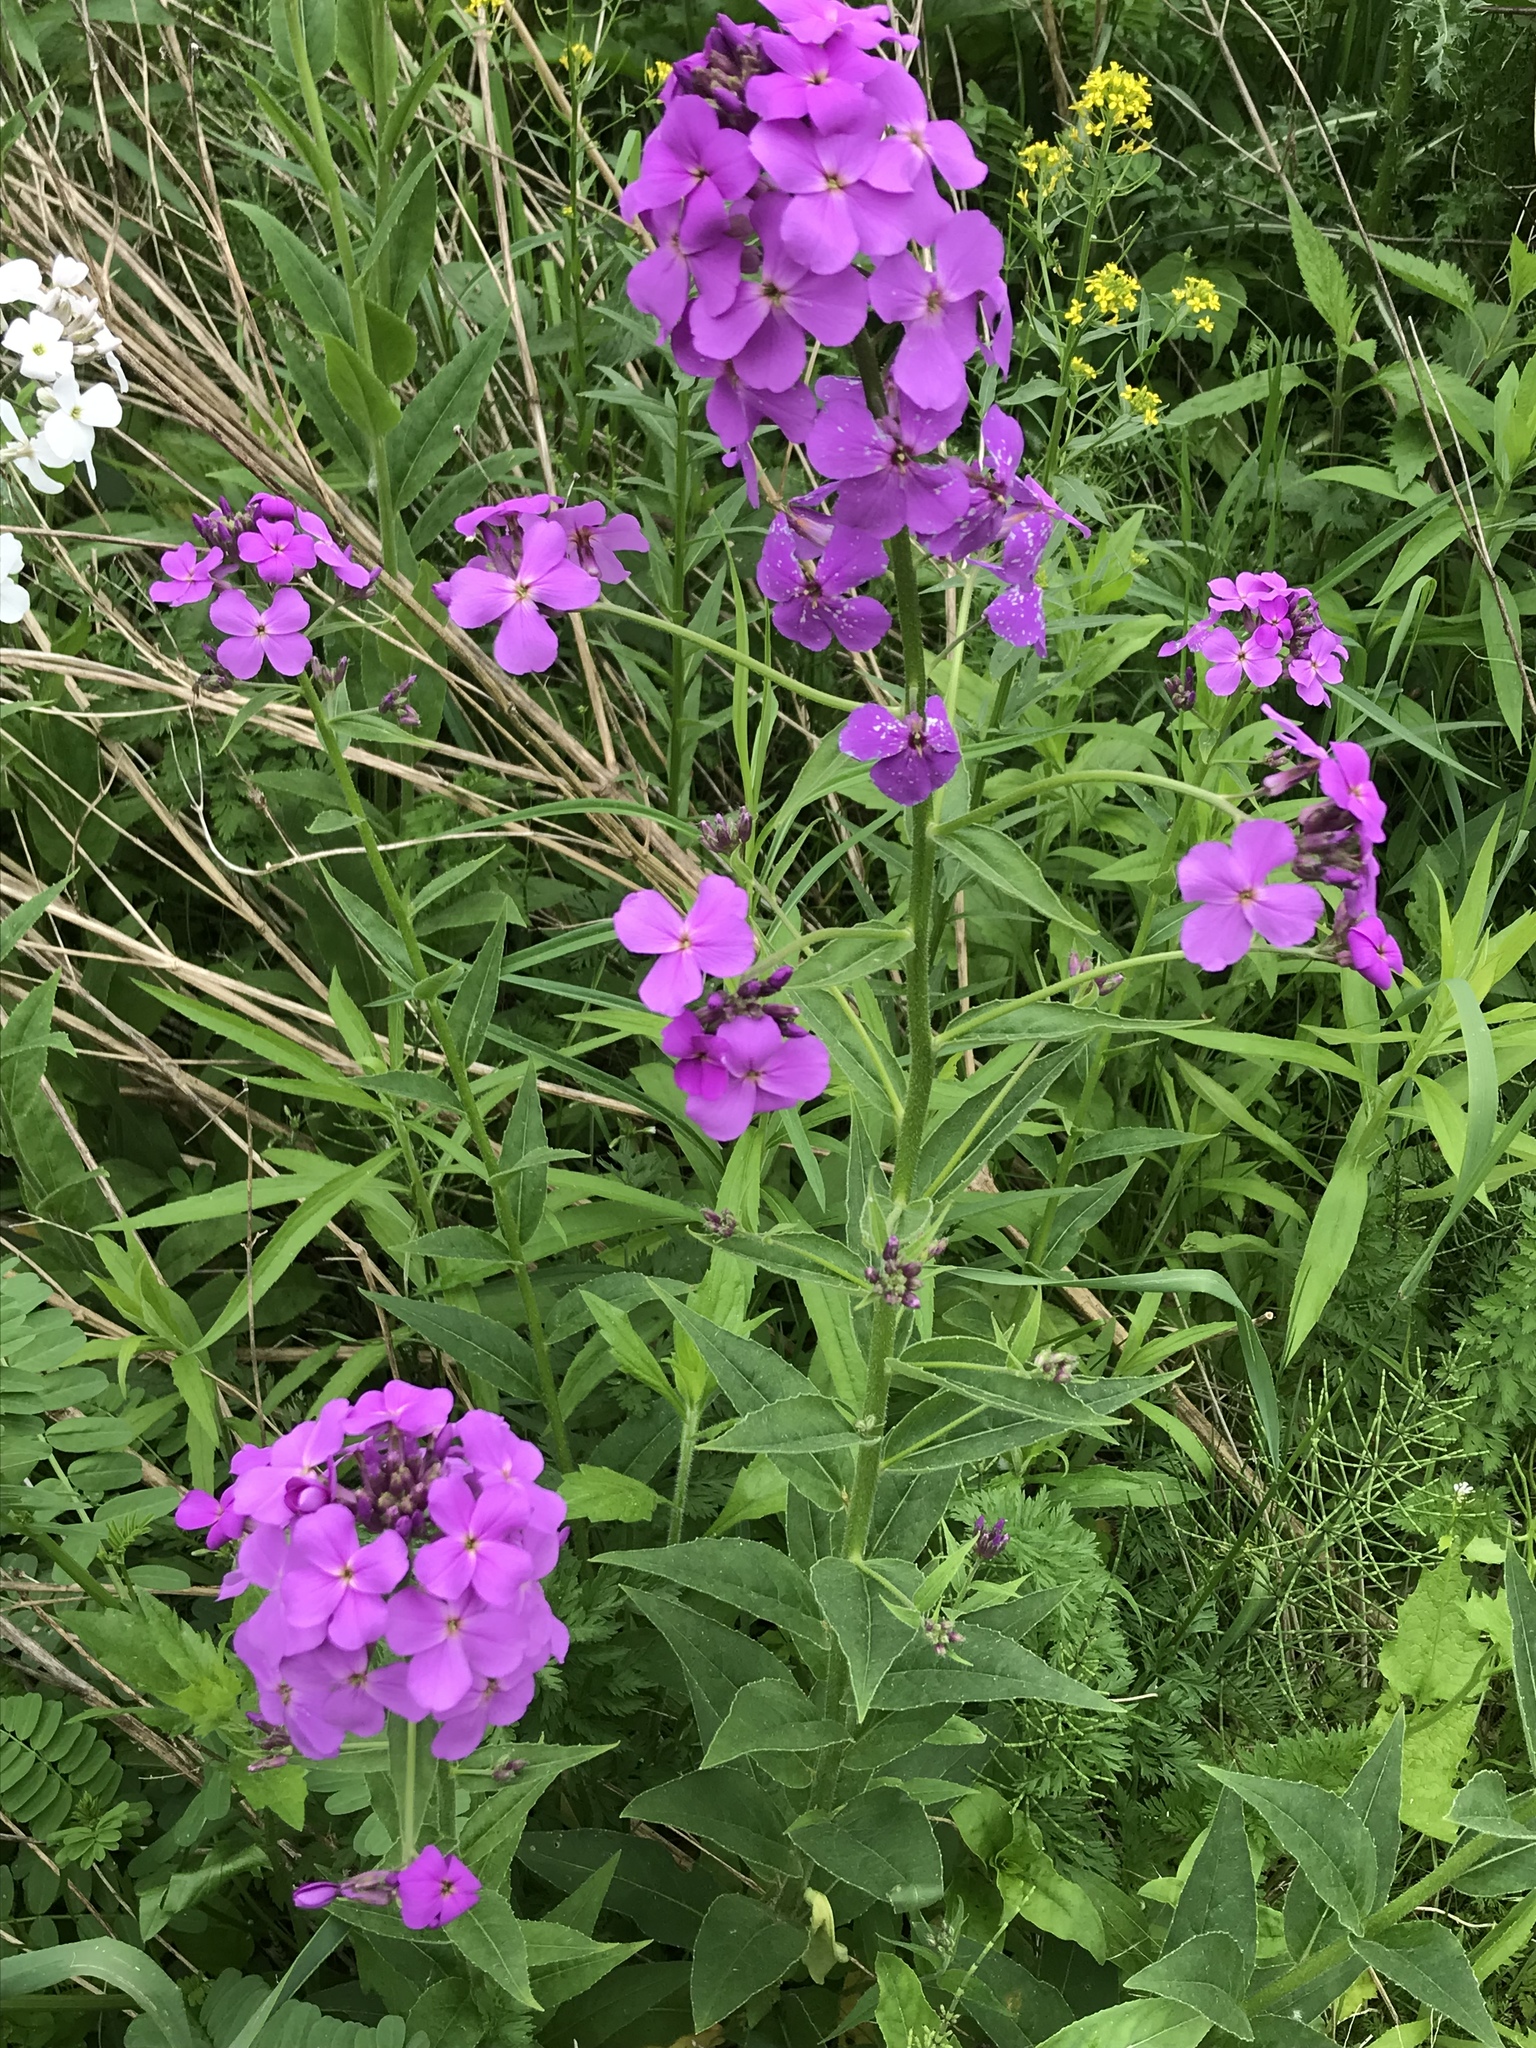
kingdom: Plantae
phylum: Tracheophyta
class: Magnoliopsida
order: Brassicales
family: Brassicaceae
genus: Hesperis
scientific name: Hesperis matronalis
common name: Dame's-violet
